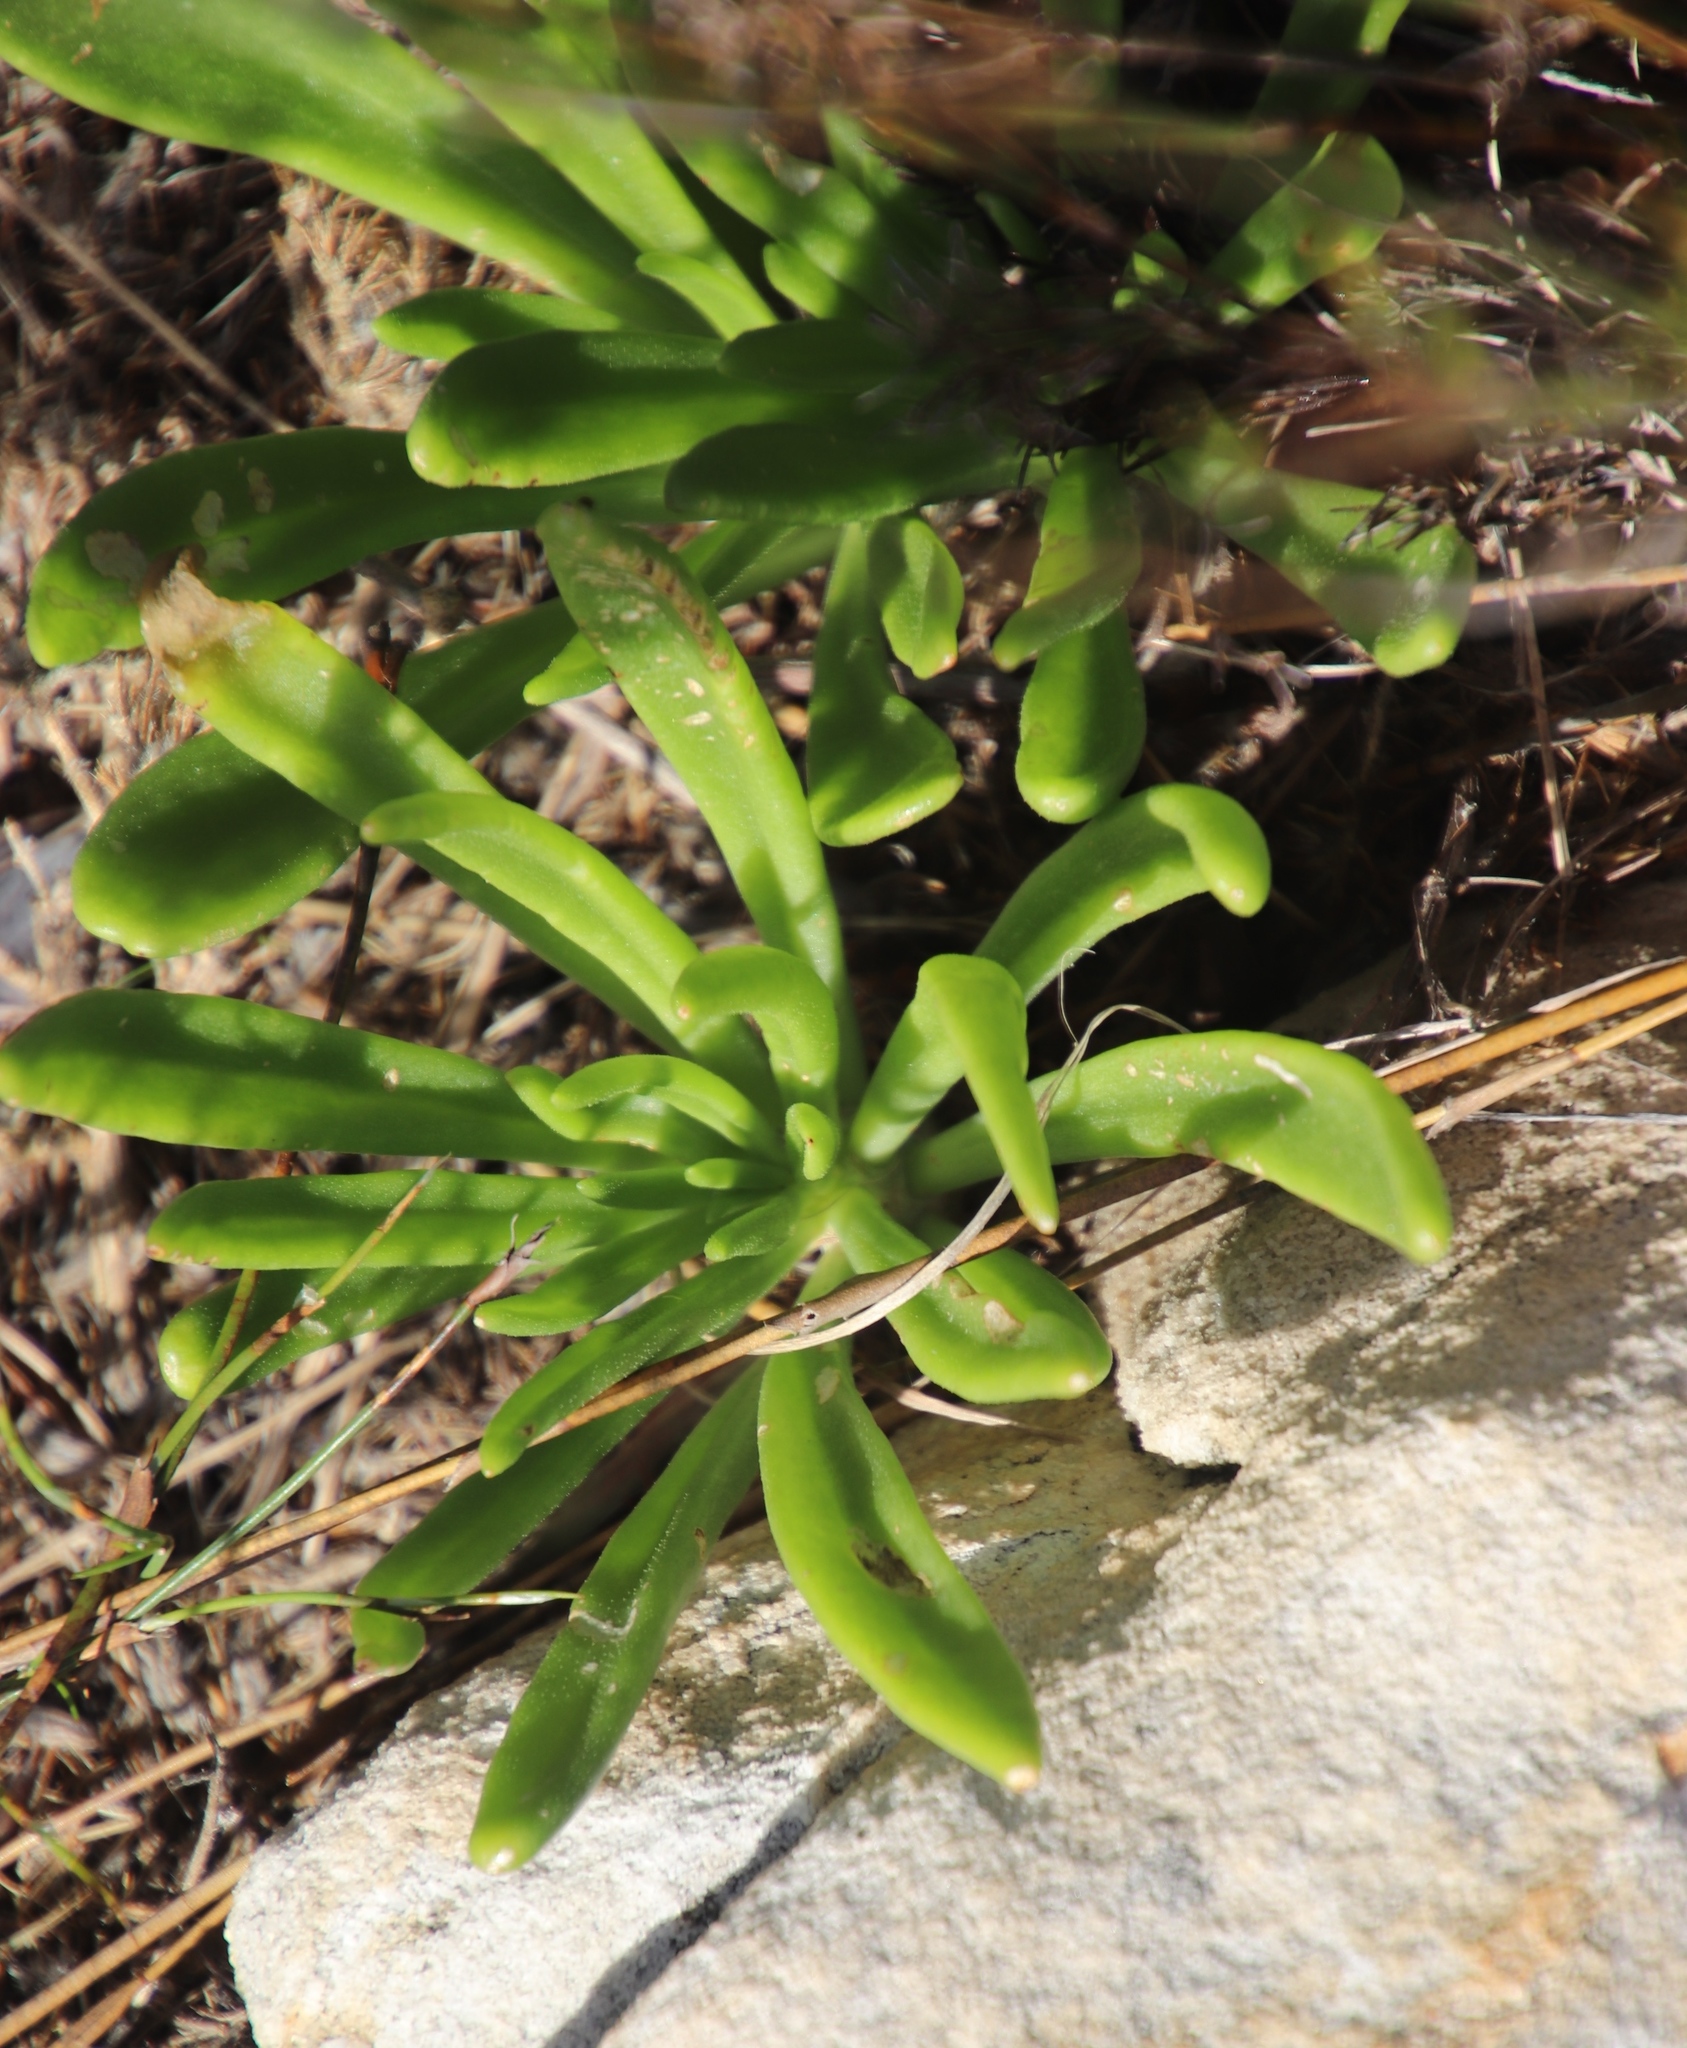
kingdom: Plantae
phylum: Tracheophyta
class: Magnoliopsida
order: Saxifragales
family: Crassulaceae
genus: Tylecodon
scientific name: Tylecodon grandiflorus
